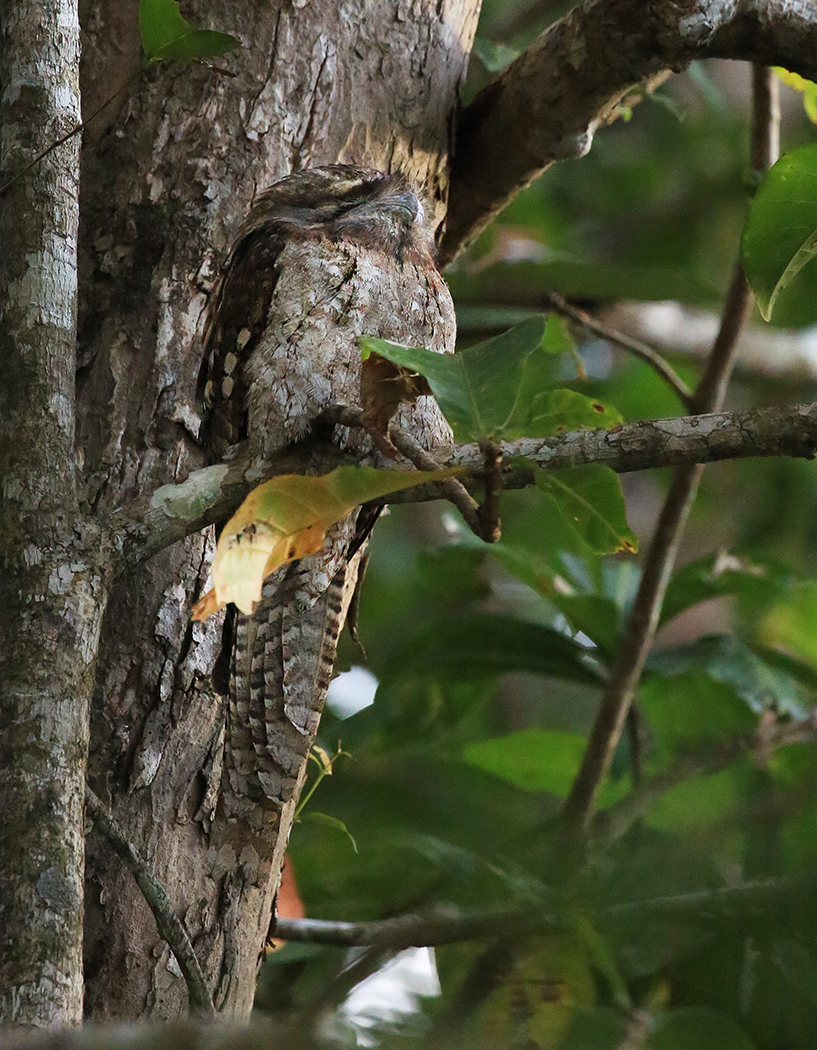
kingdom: Animalia
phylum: Chordata
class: Aves
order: Caprimulgiformes
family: Podargidae
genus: Podargus
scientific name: Podargus papuensis
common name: Papuan frogmouth
